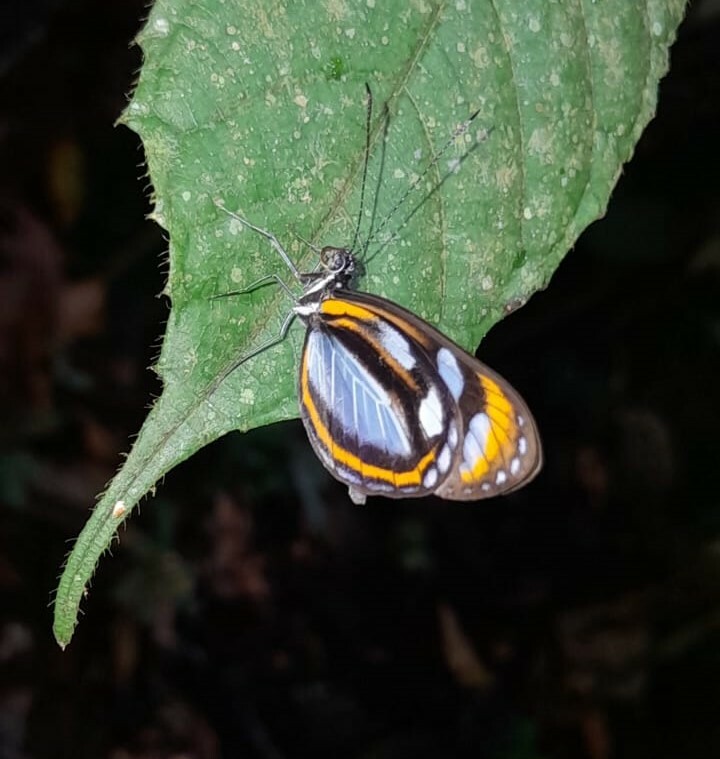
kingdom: Animalia
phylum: Arthropoda
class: Insecta
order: Lepidoptera
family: Pieridae
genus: Dismorphia
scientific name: Dismorphia theucharila
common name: Clearwing mimic-white
